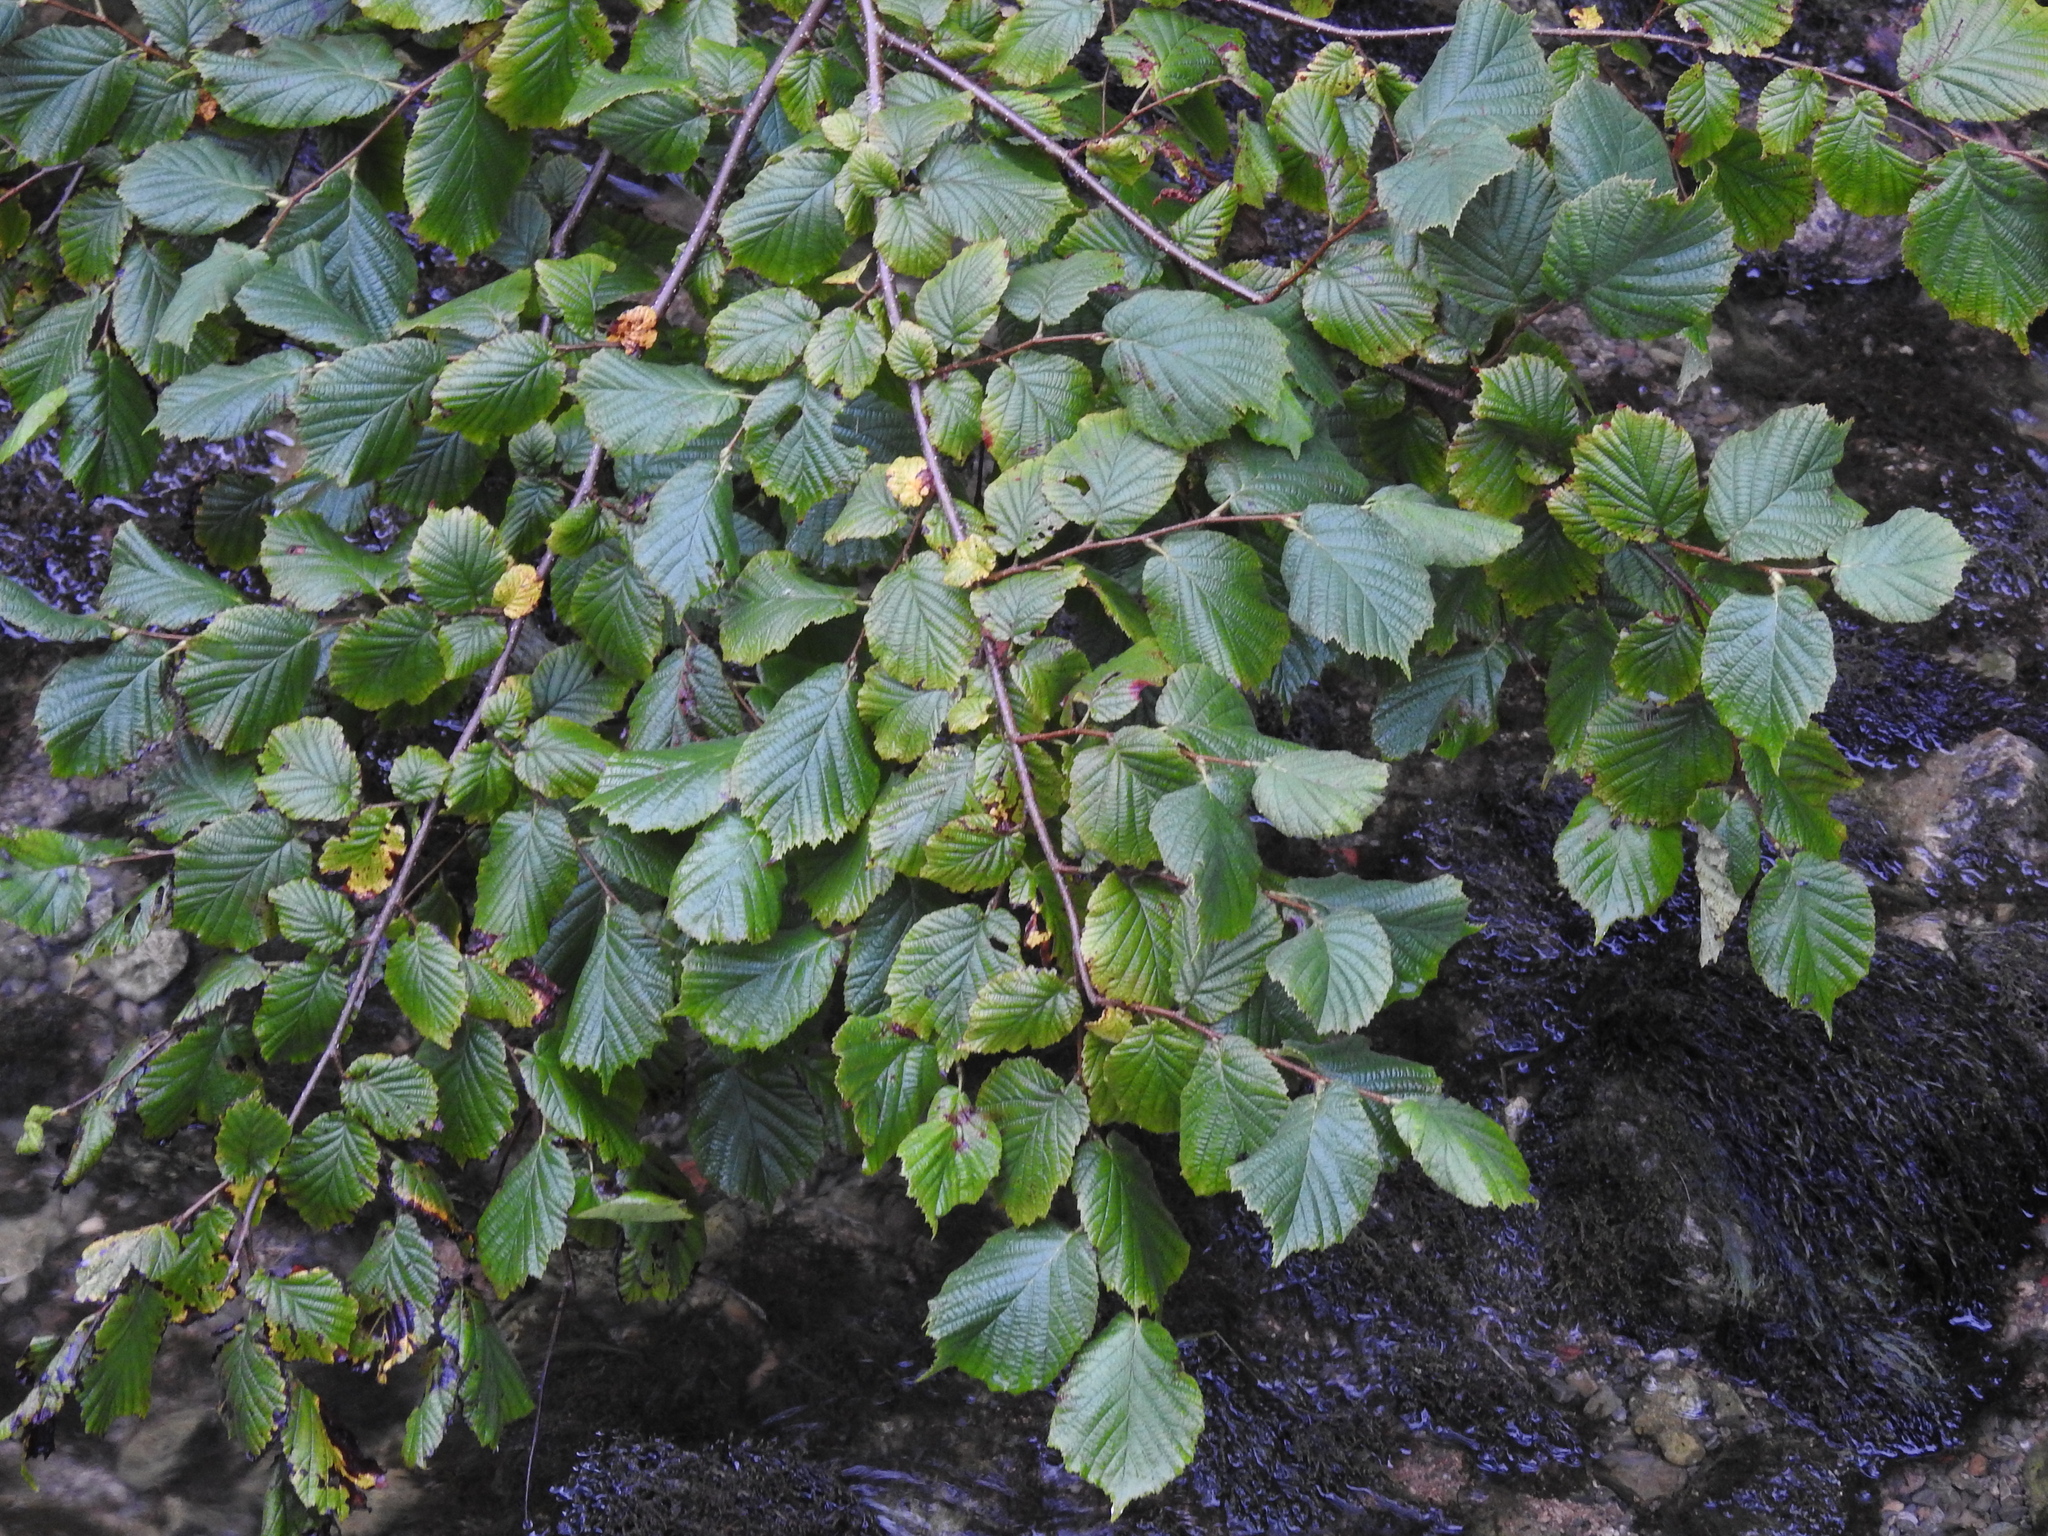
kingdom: Plantae
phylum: Tracheophyta
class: Magnoliopsida
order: Fagales
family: Betulaceae
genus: Corylus
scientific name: Corylus avellana
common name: European hazel
